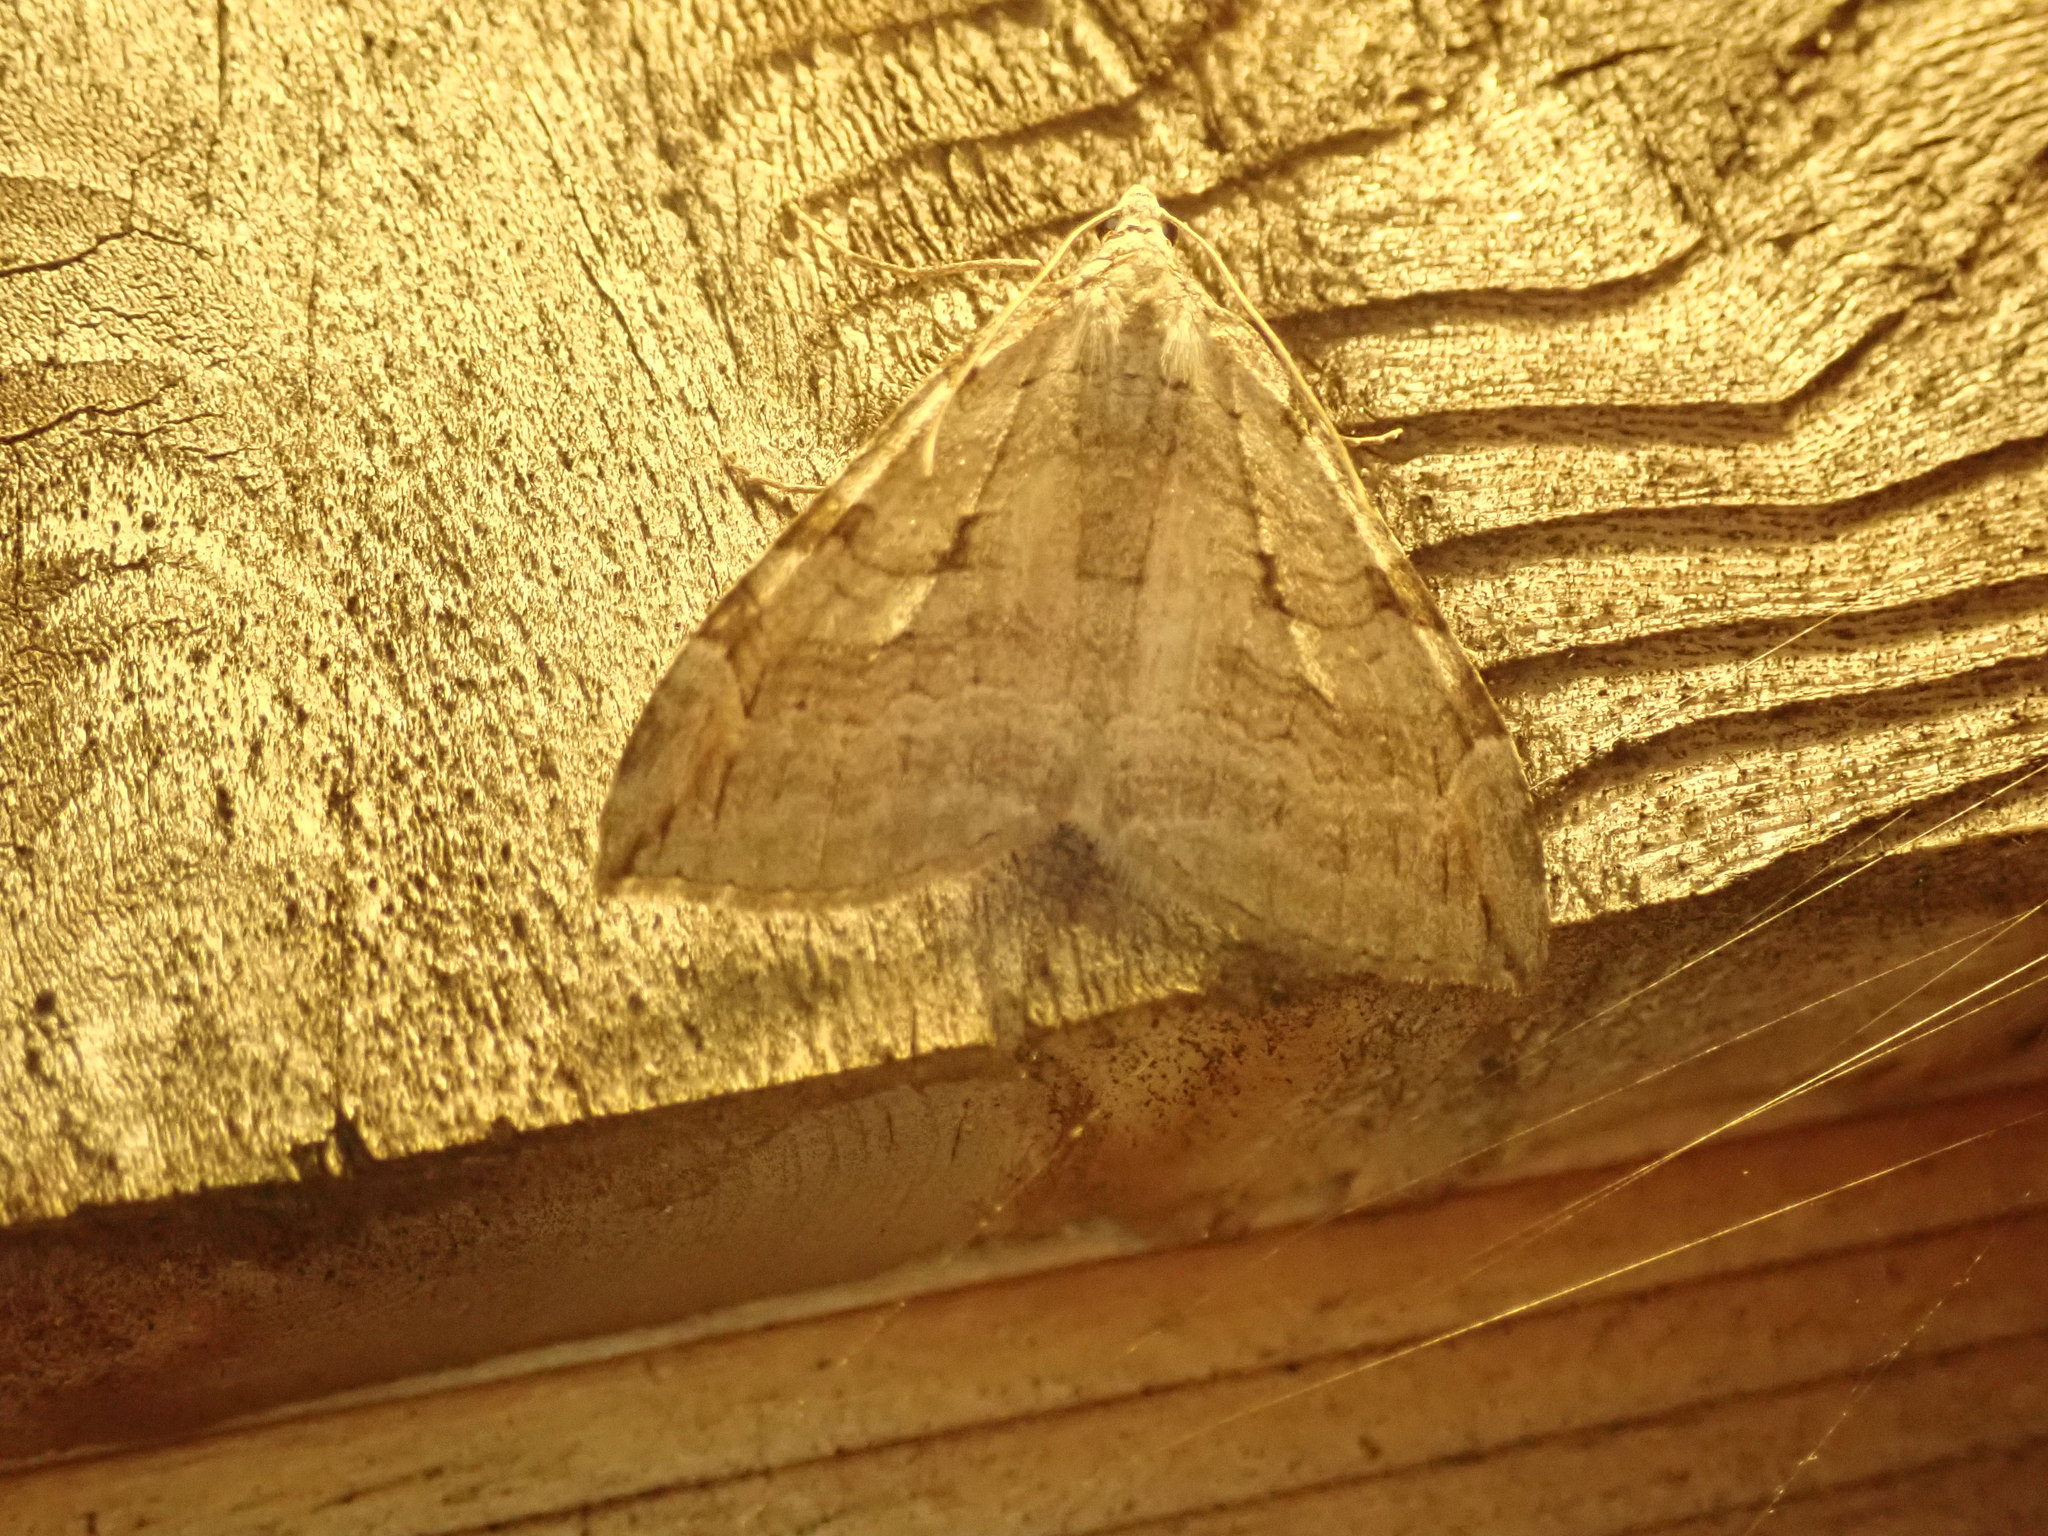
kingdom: Animalia
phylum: Arthropoda
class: Insecta
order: Lepidoptera
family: Geometridae
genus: Aplocera
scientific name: Aplocera plagiata
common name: Treble-bar
